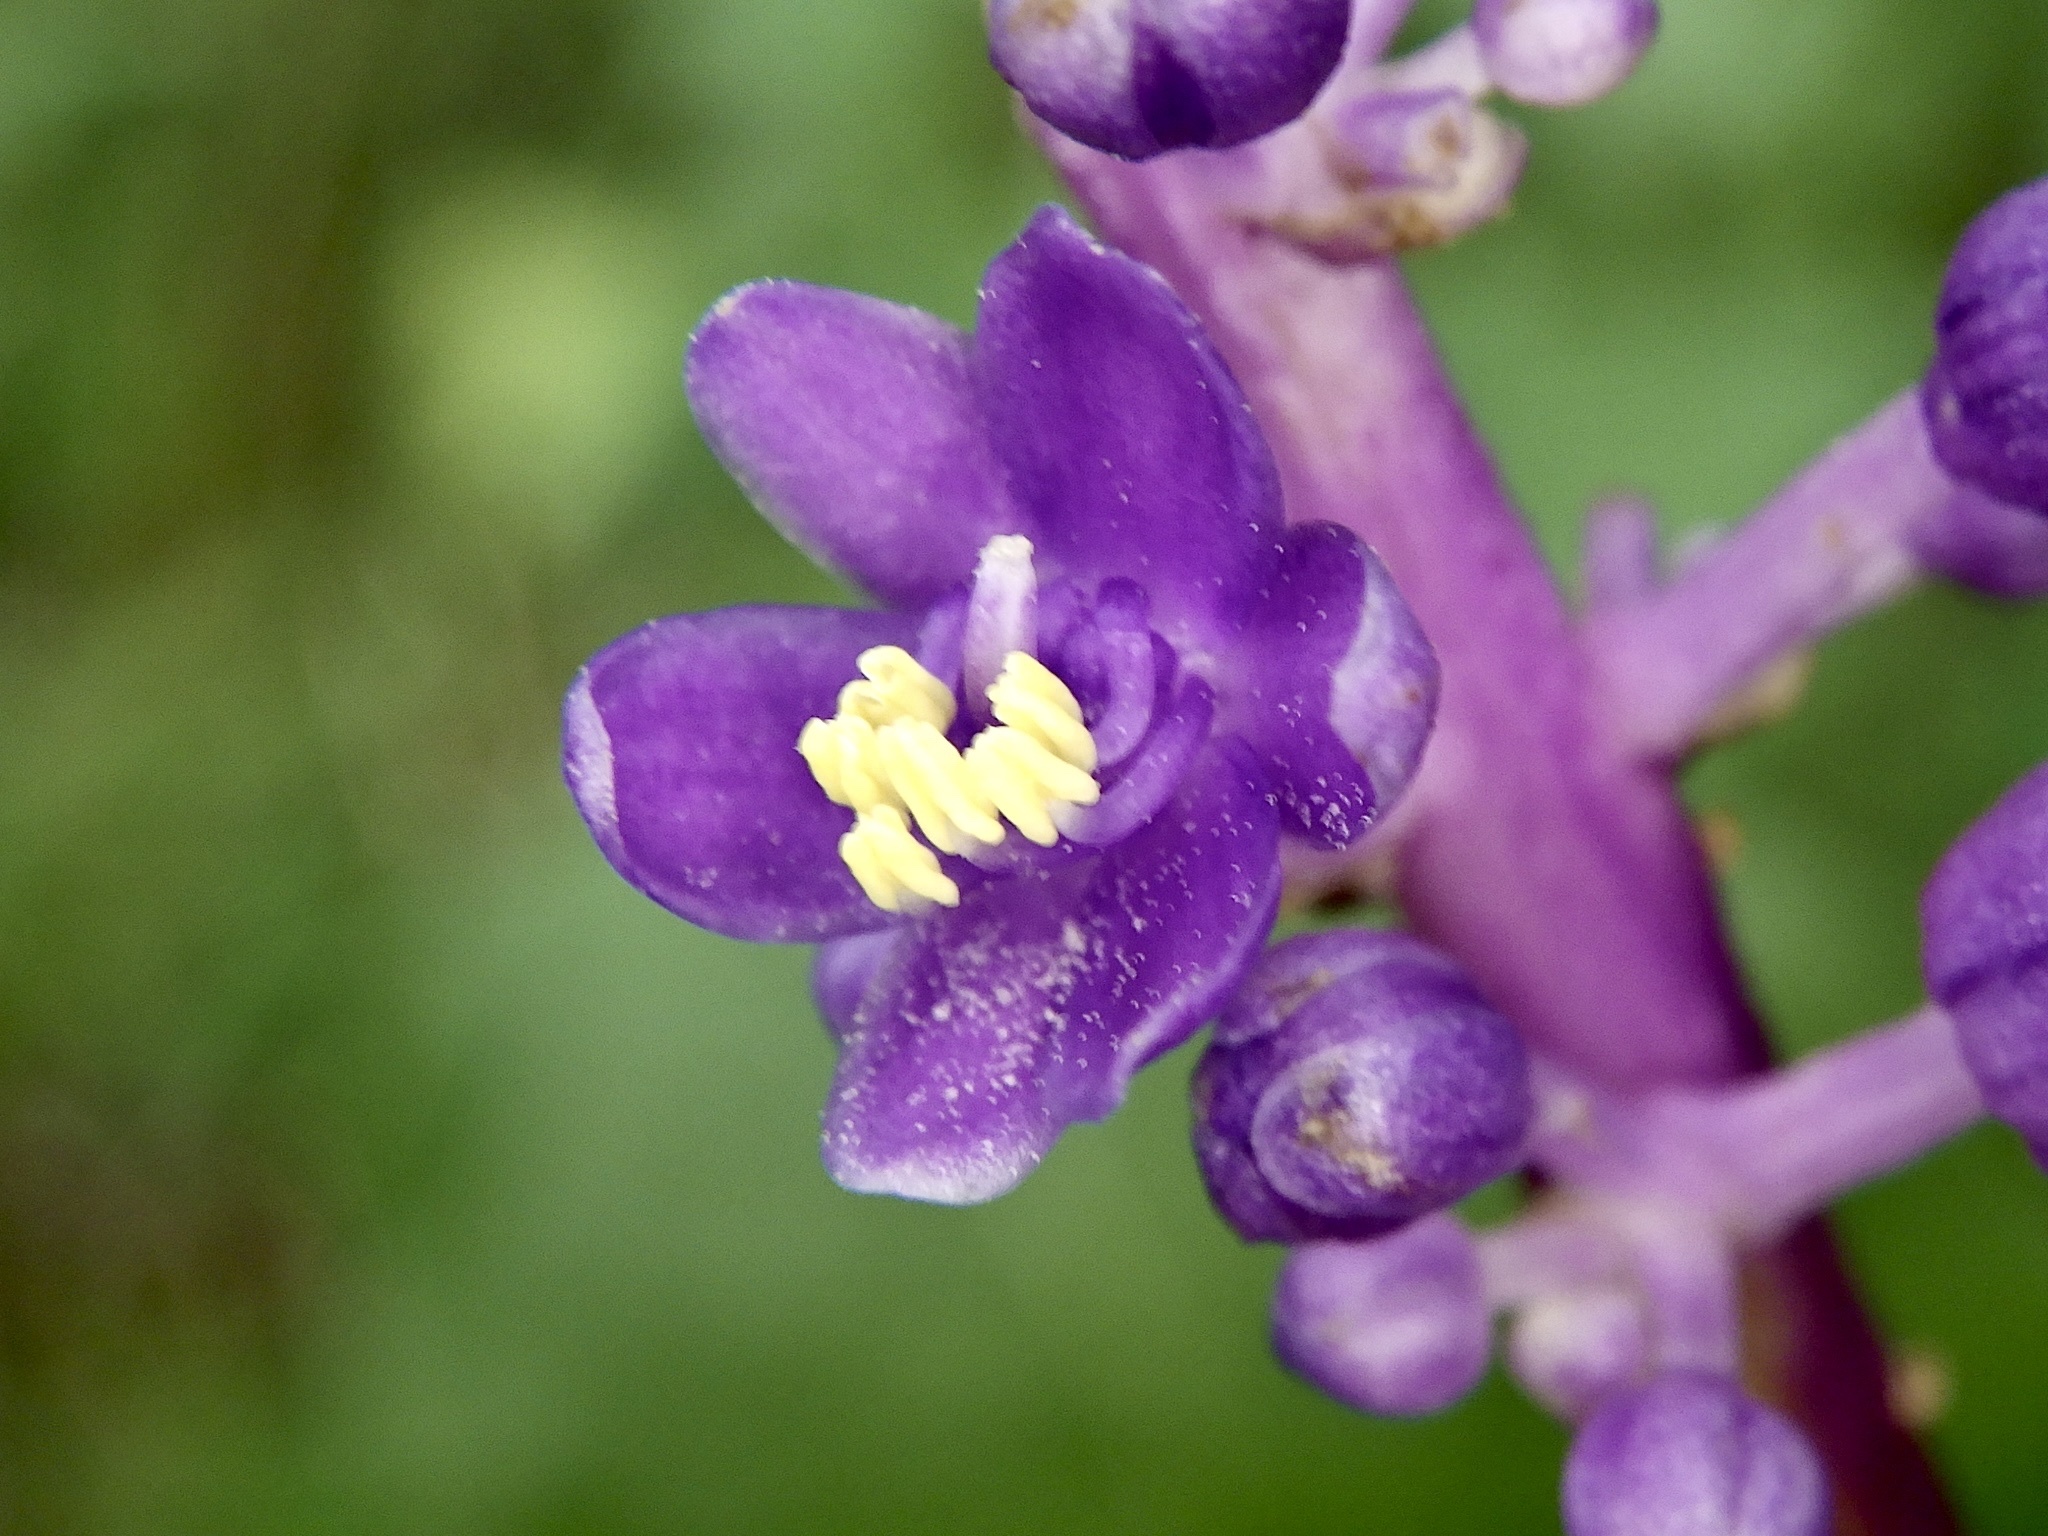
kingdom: Plantae
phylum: Tracheophyta
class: Liliopsida
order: Asparagales
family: Asparagaceae
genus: Liriope
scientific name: Liriope muscari
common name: Big blue lilyturf
